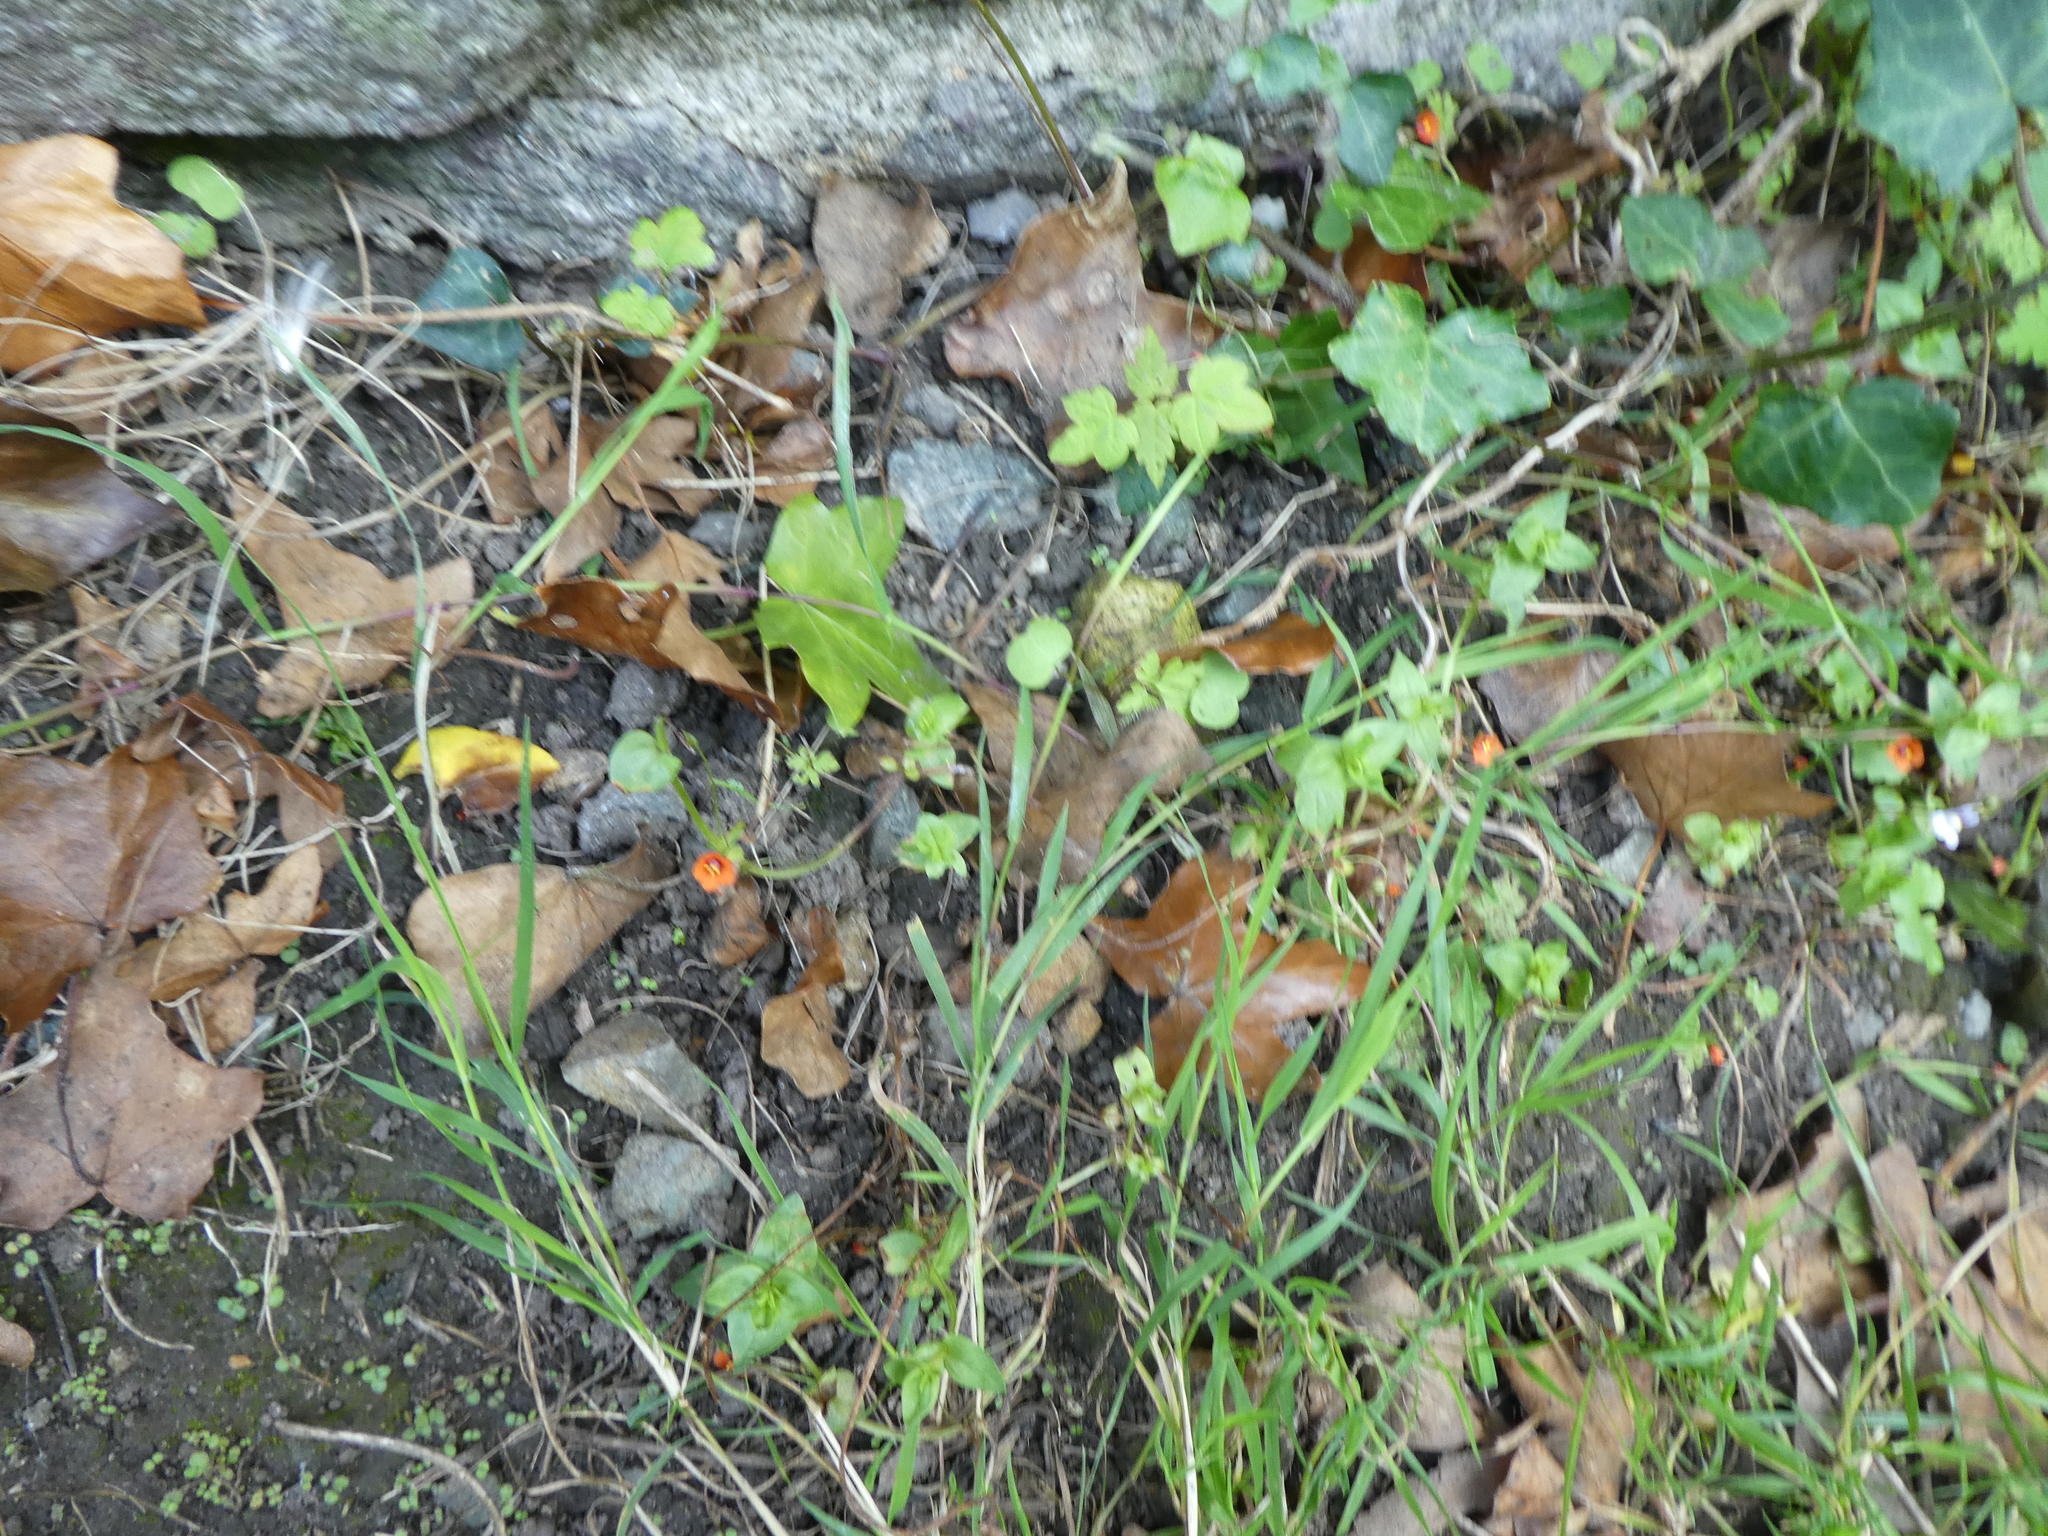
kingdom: Plantae
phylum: Tracheophyta
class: Magnoliopsida
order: Ericales
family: Primulaceae
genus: Lysimachia
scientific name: Lysimachia arvensis
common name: Scarlet pimpernel
